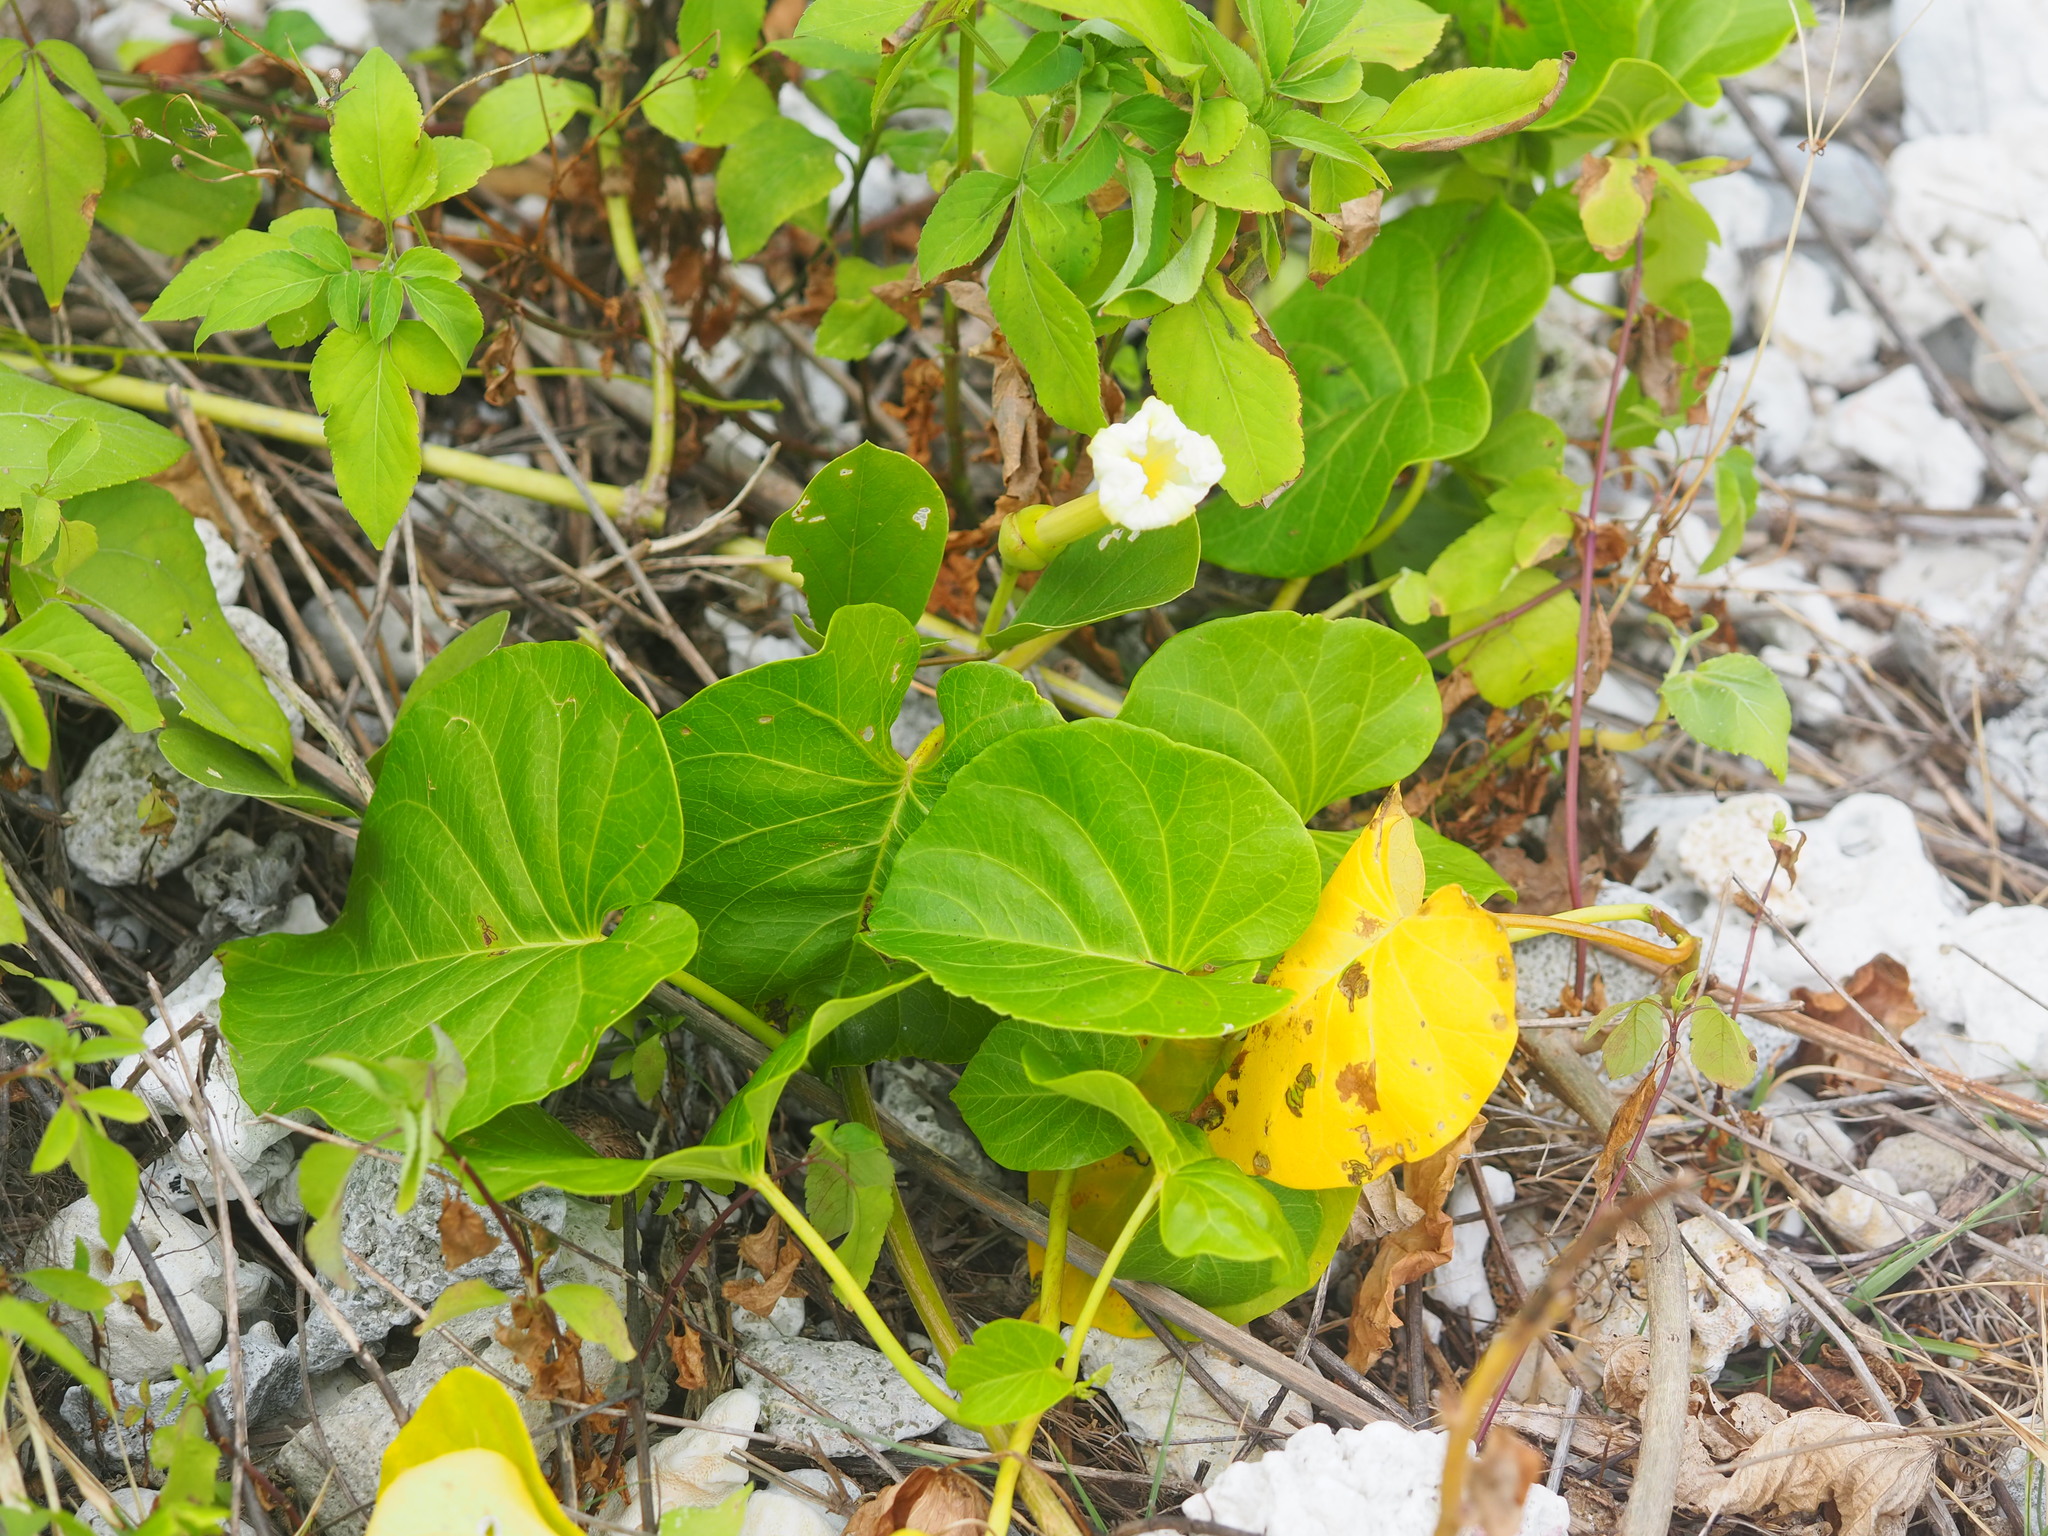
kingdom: Plantae
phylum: Tracheophyta
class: Magnoliopsida
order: Solanales
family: Convolvulaceae
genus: Ipomoea
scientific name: Ipomoea violacea
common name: Beach moonflower
